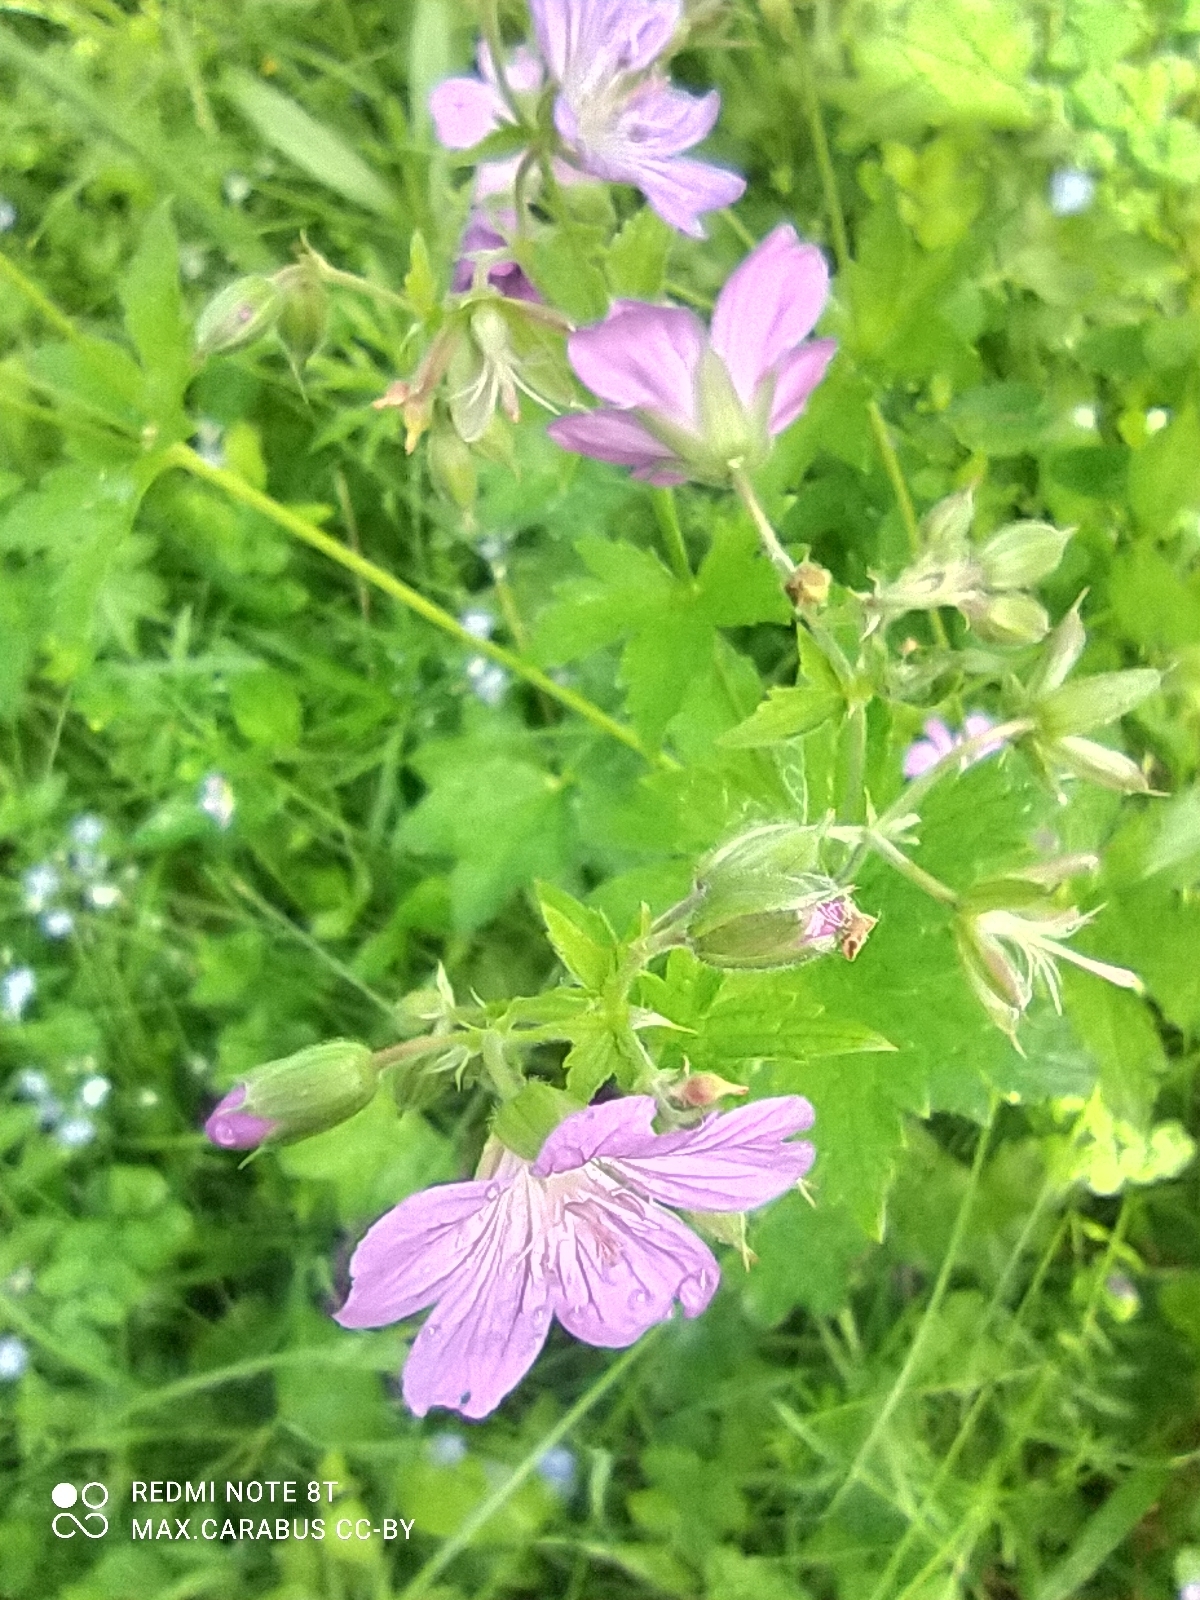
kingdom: Plantae
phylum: Tracheophyta
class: Magnoliopsida
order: Geraniales
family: Geraniaceae
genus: Geranium
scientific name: Geranium sylvaticum
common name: Wood crane's-bill
